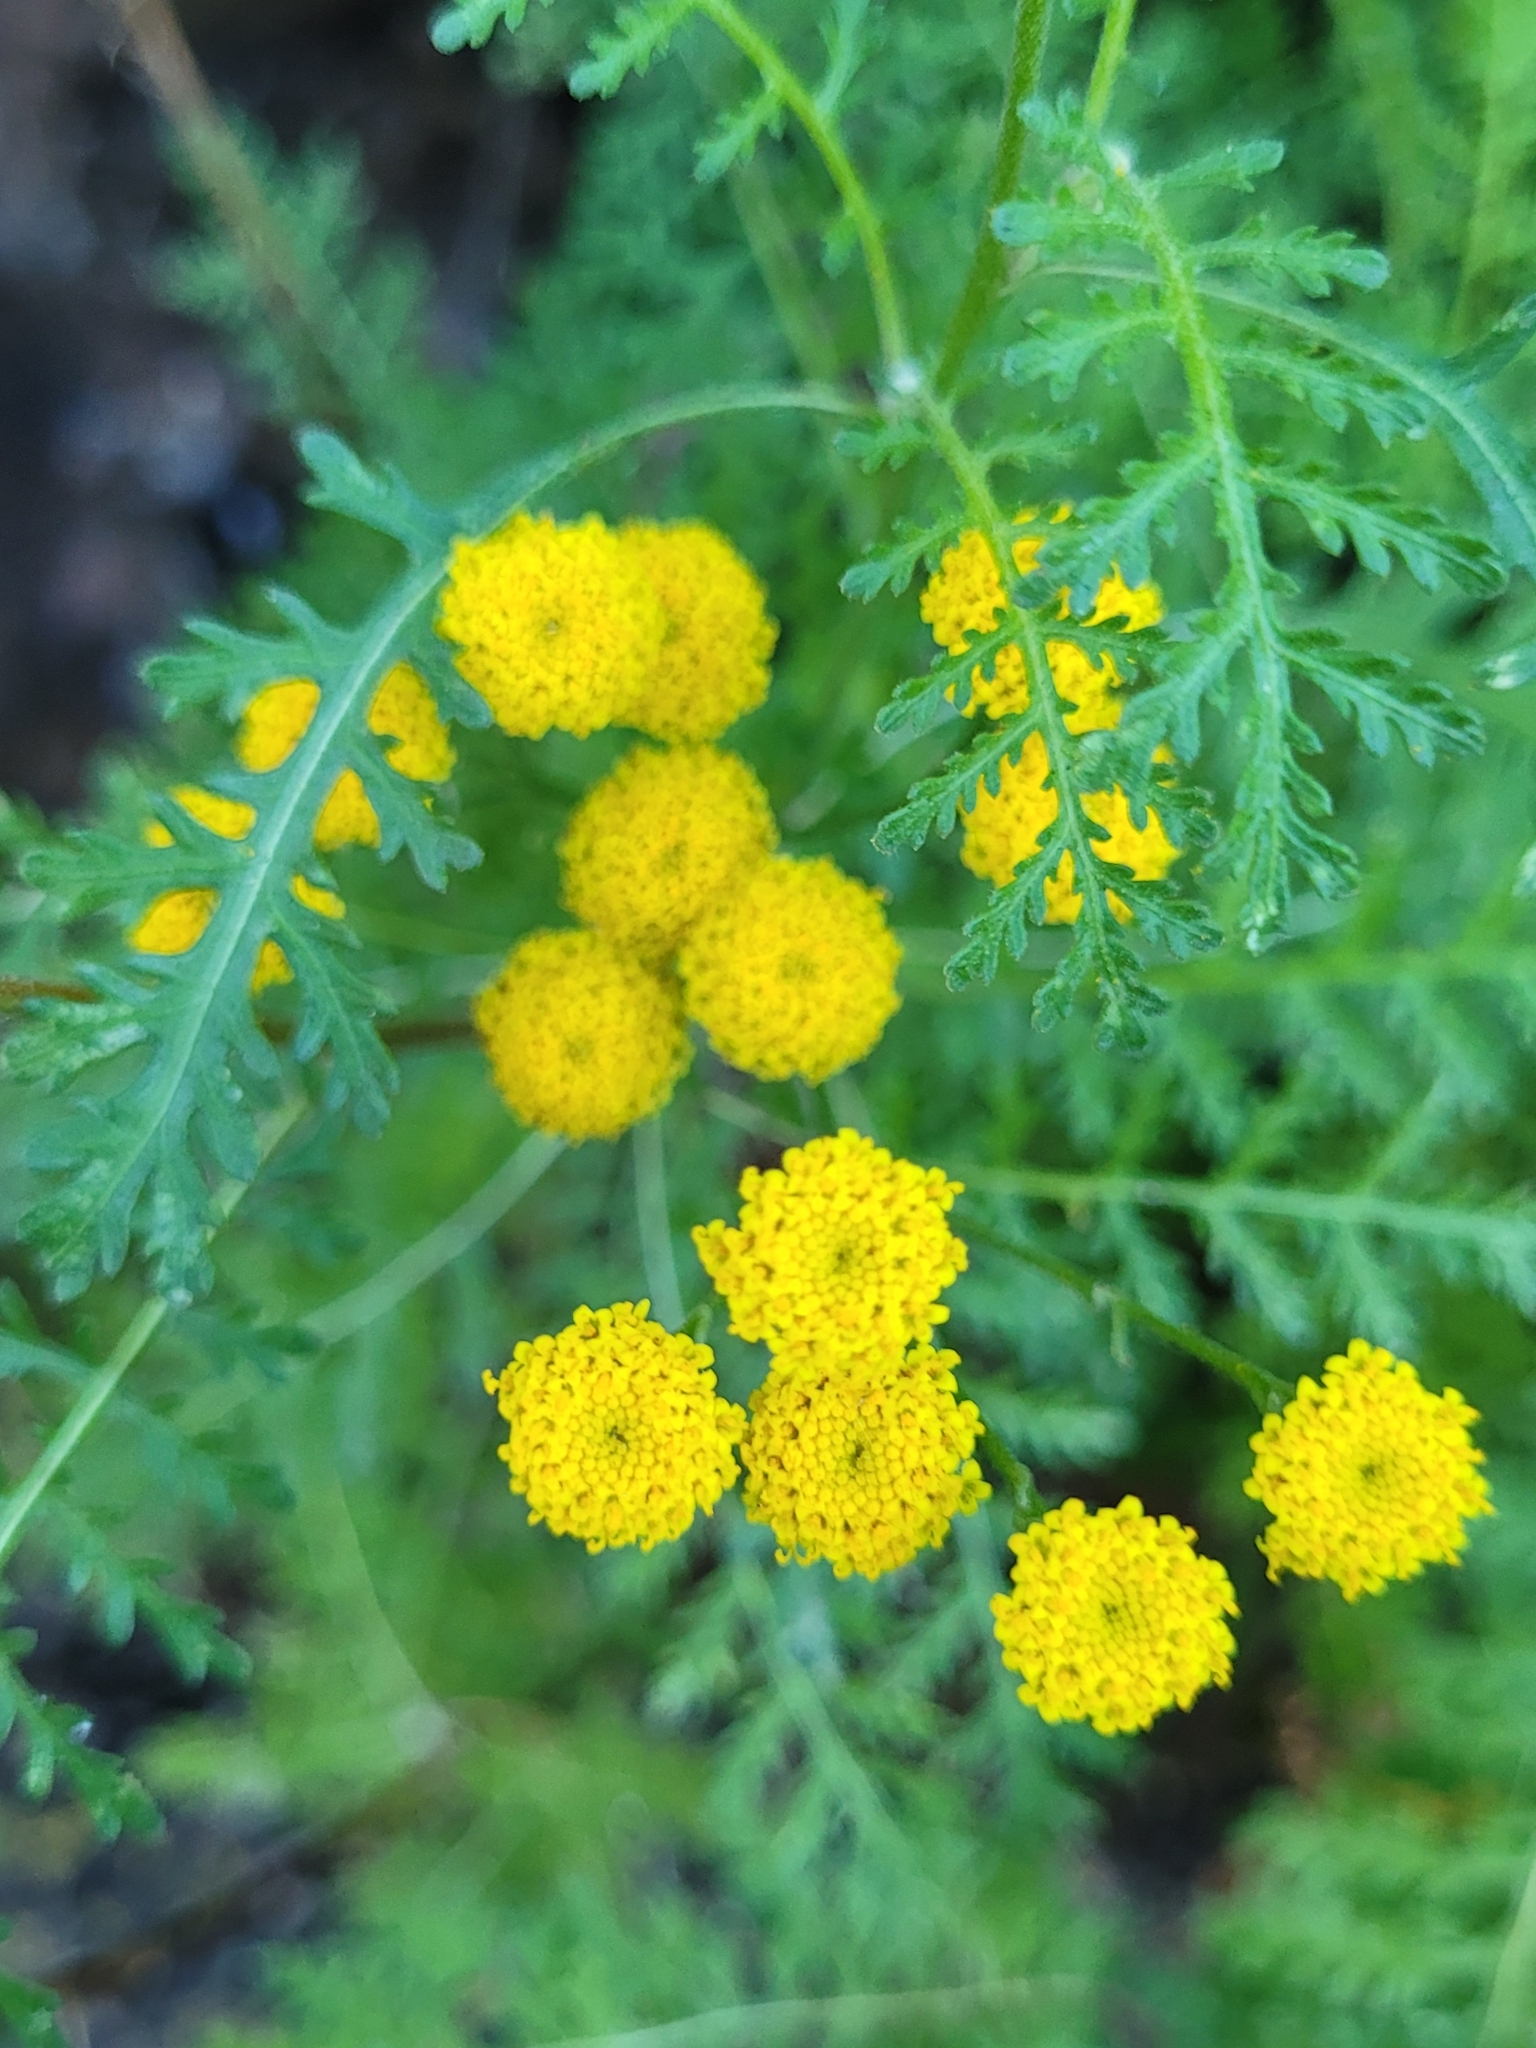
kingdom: Plantae
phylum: Tracheophyta
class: Magnoliopsida
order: Asterales
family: Asteraceae
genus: Gonospermum
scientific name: Gonospermum fruticosum
